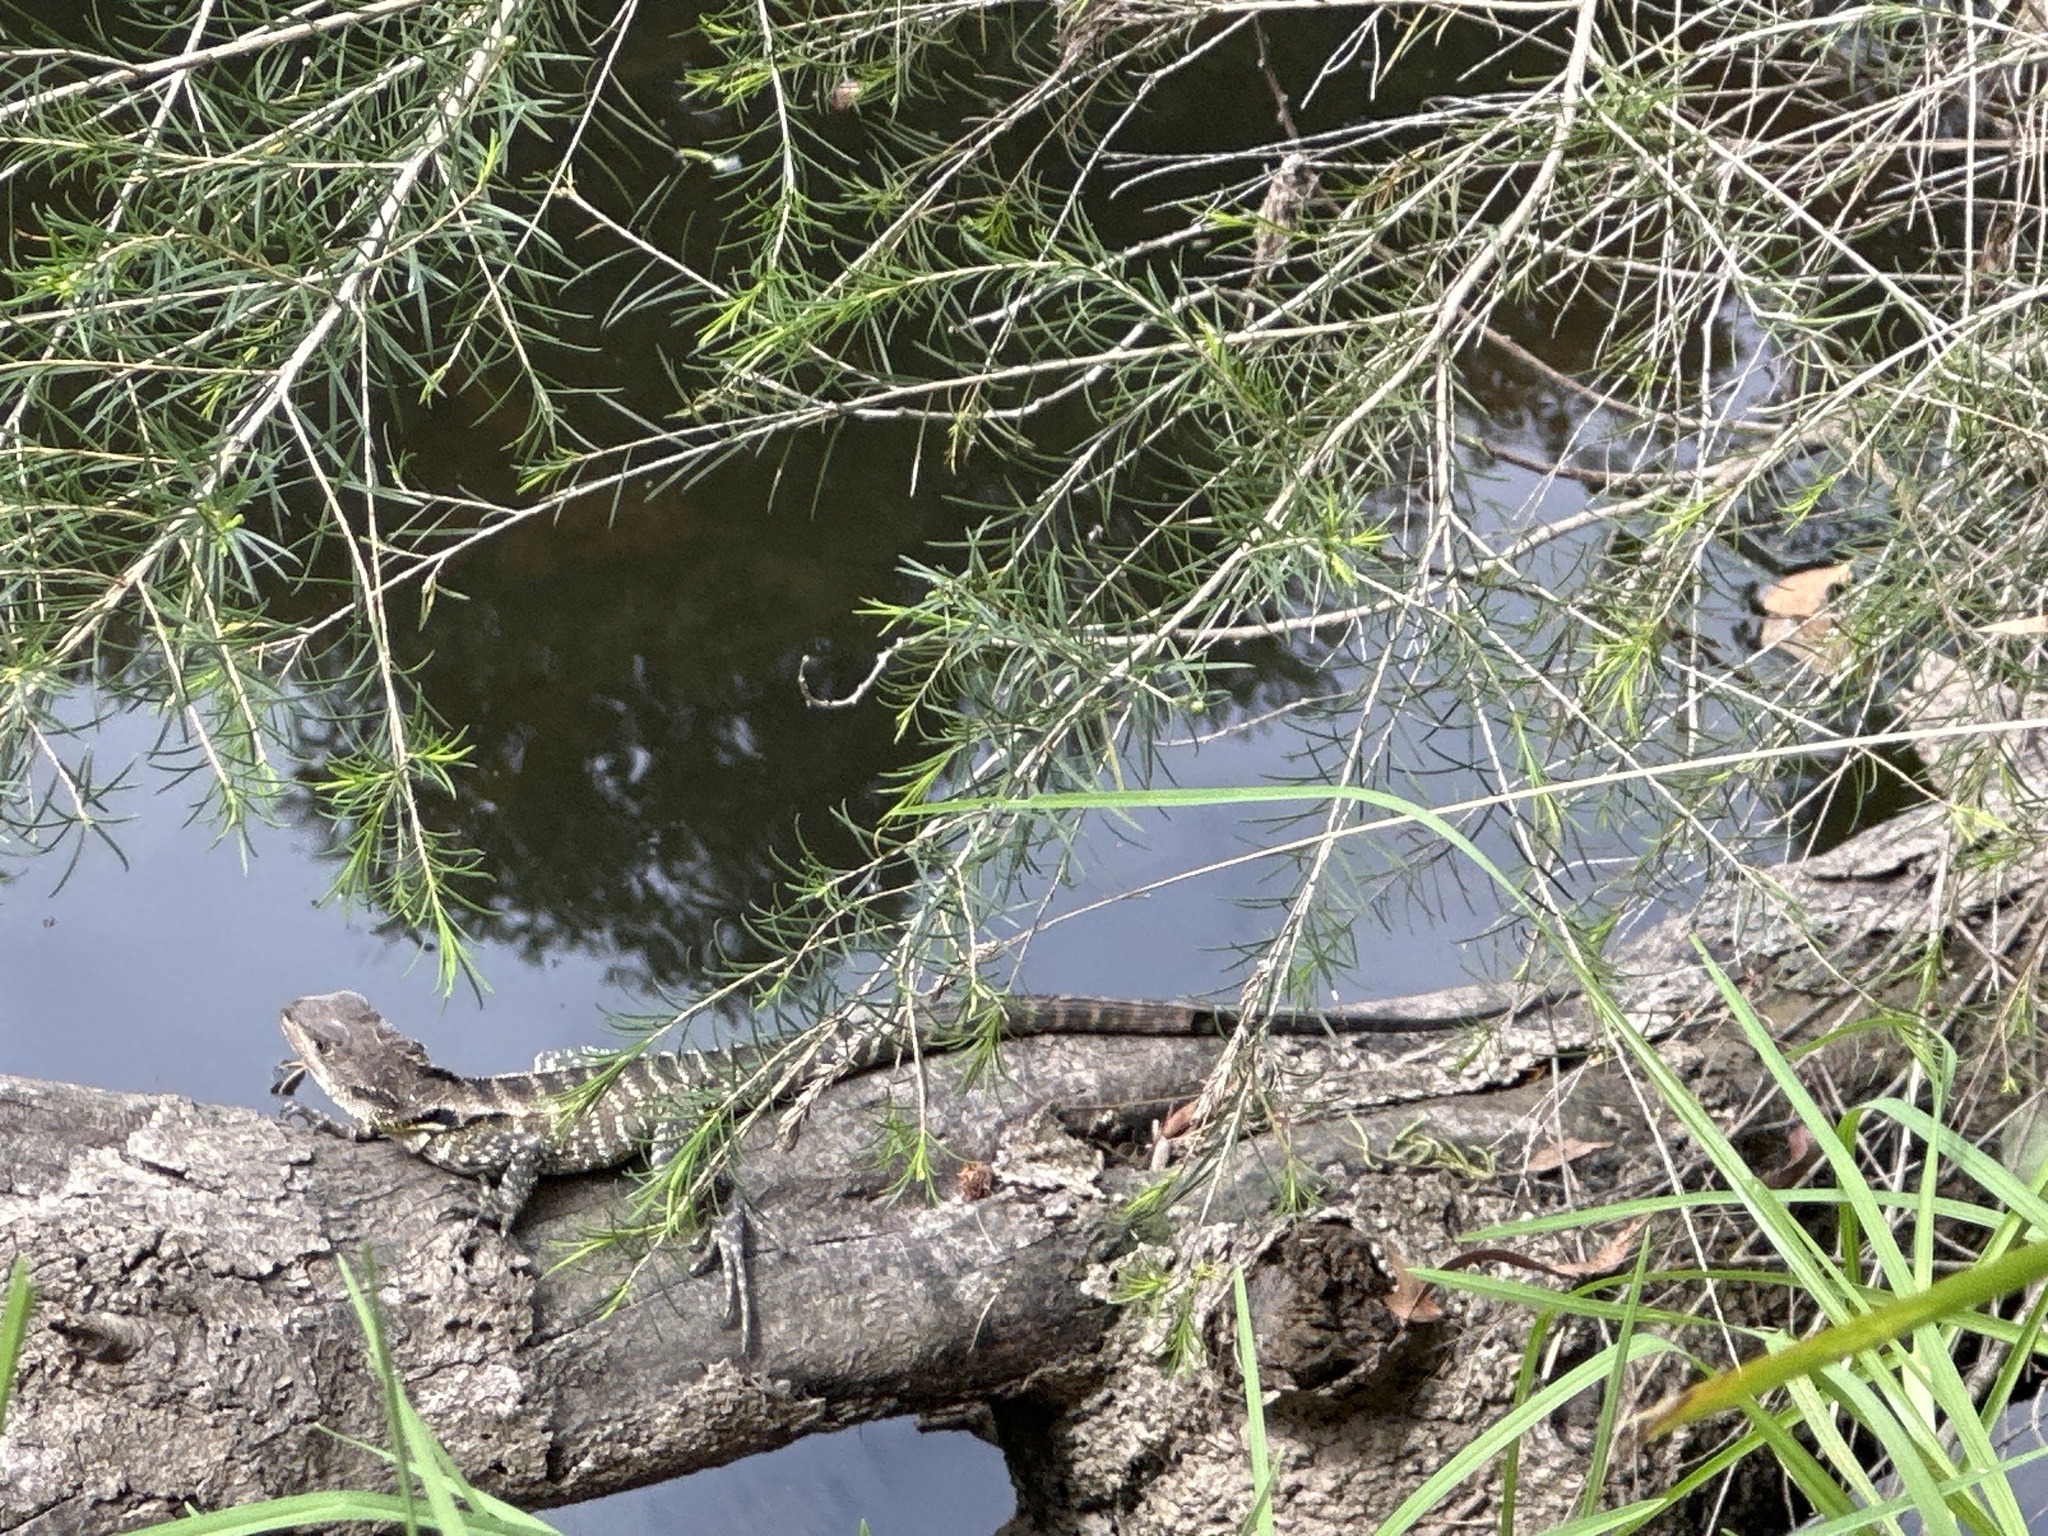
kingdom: Animalia
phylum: Chordata
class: Squamata
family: Agamidae
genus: Intellagama
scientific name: Intellagama lesueurii
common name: Eastern water dragon
